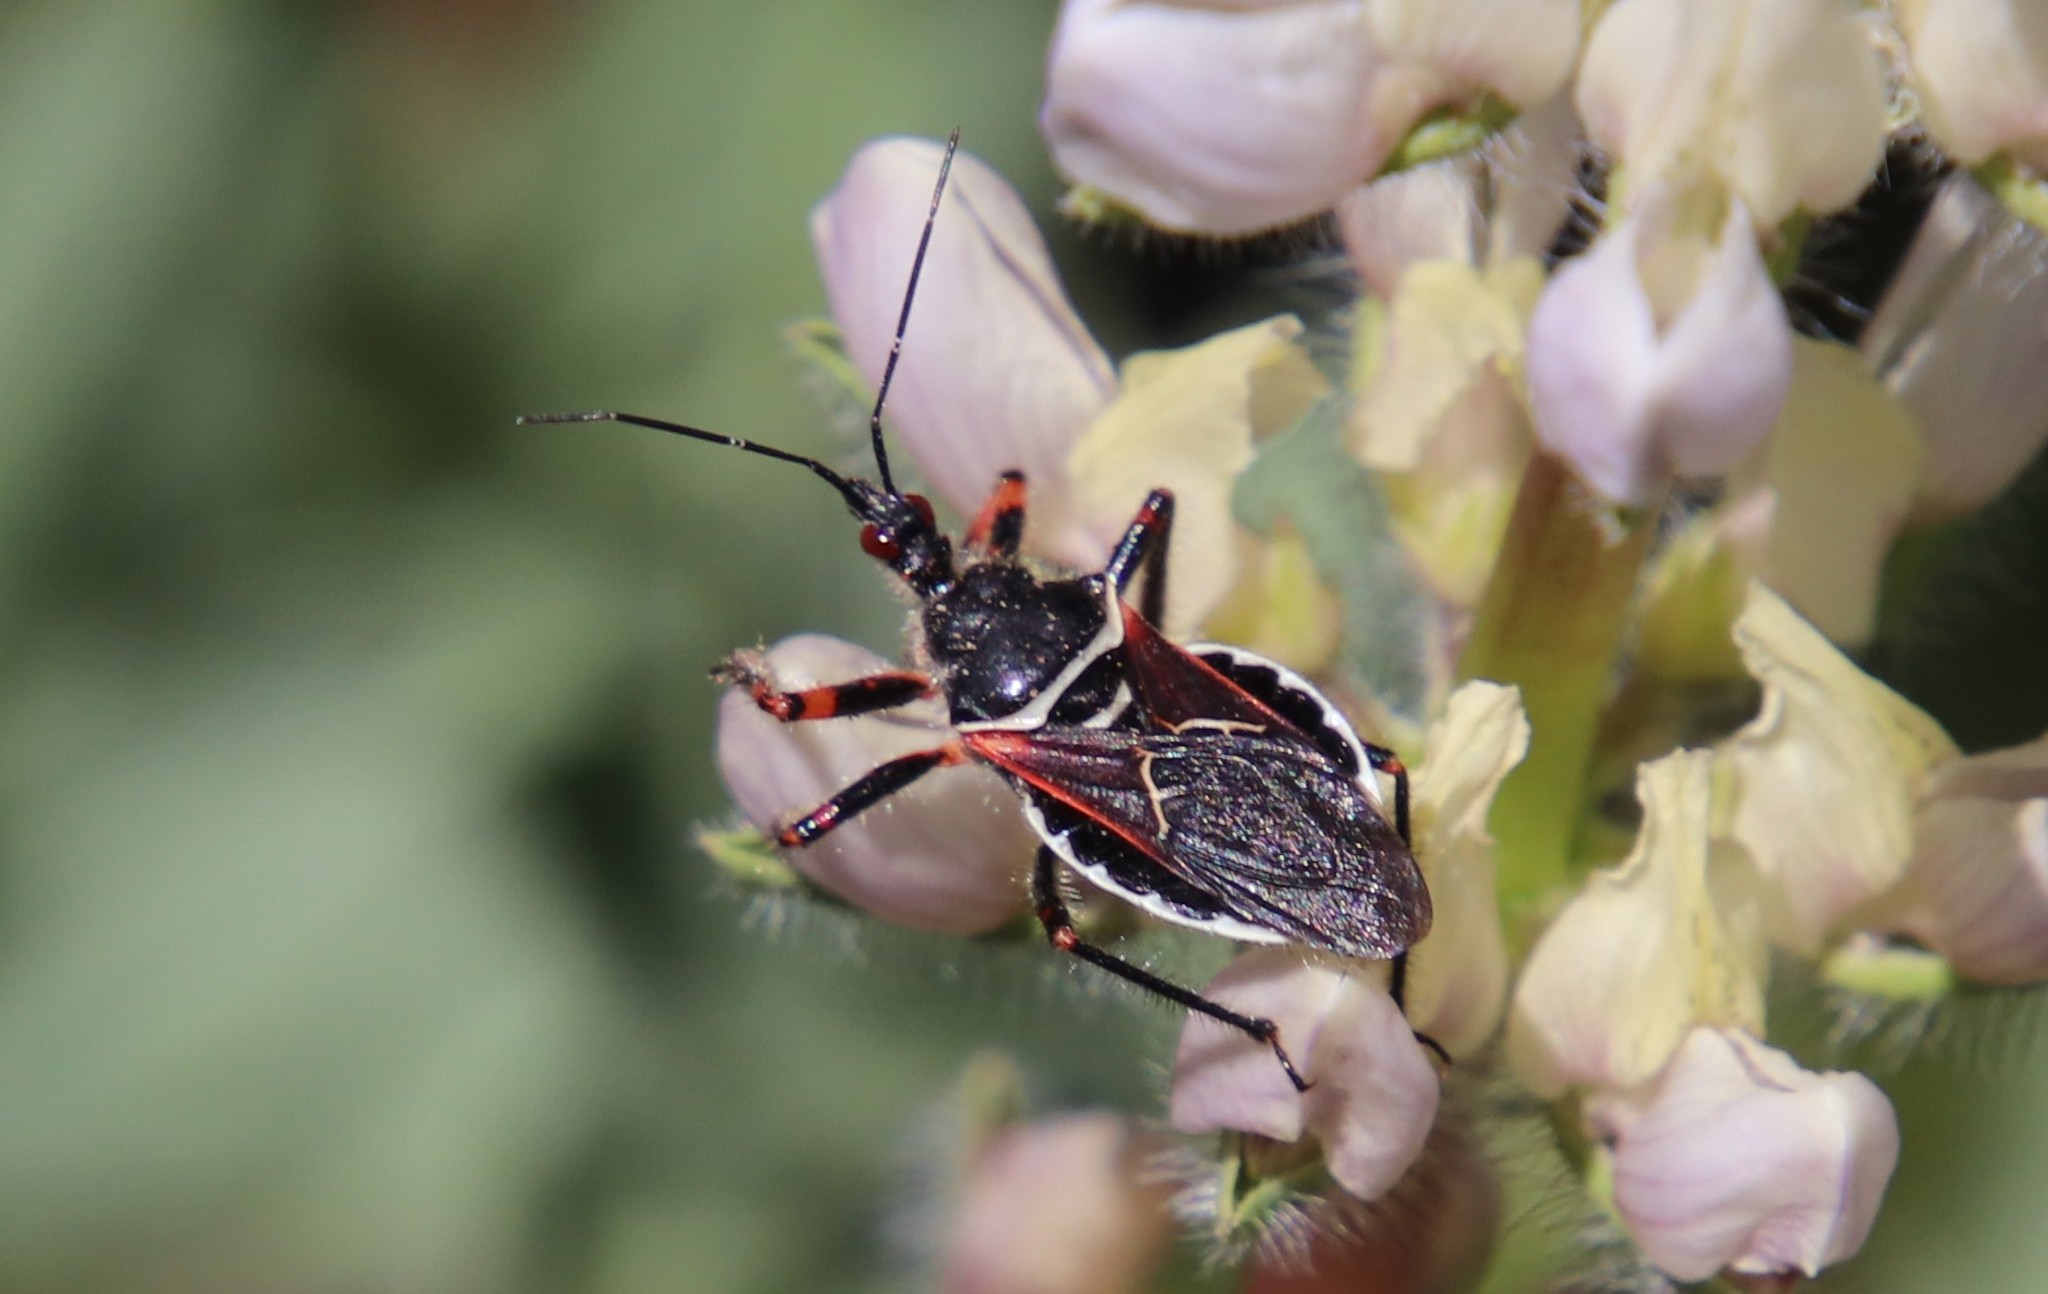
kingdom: Animalia
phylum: Arthropoda
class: Insecta
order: Hemiptera
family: Reduviidae
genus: Apiomerus
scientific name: Apiomerus californicus
